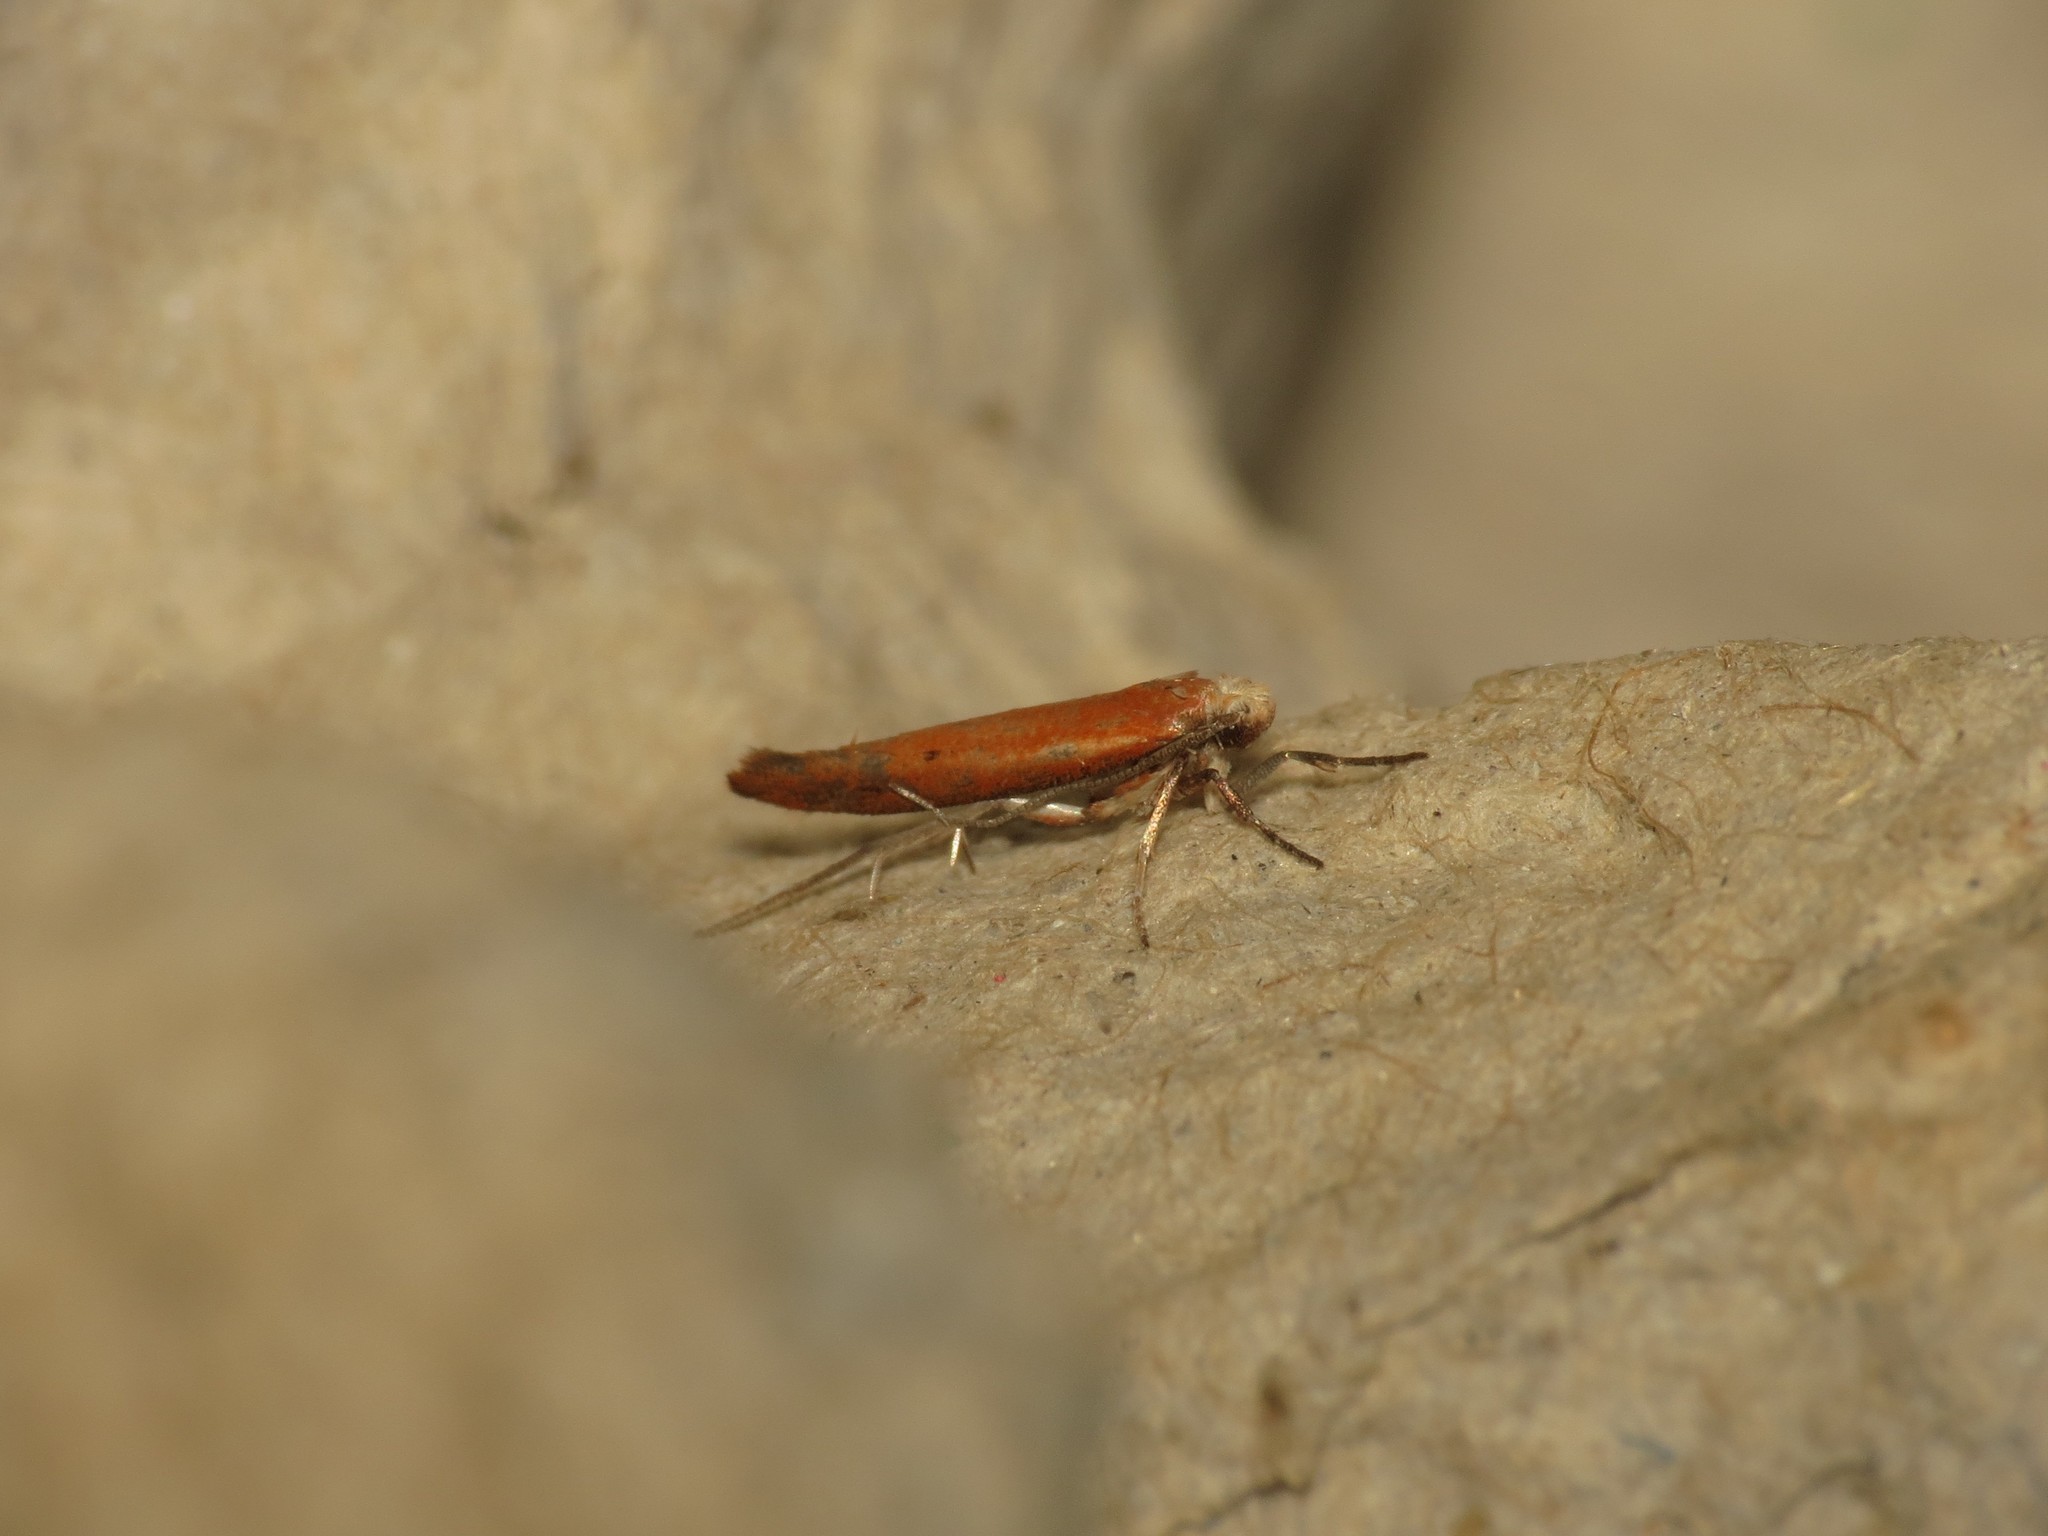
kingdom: Animalia
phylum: Arthropoda
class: Insecta
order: Lepidoptera
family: Yponomeutidae
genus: Zelleria
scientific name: Zelleria hepariella
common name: Brown ash ermine
